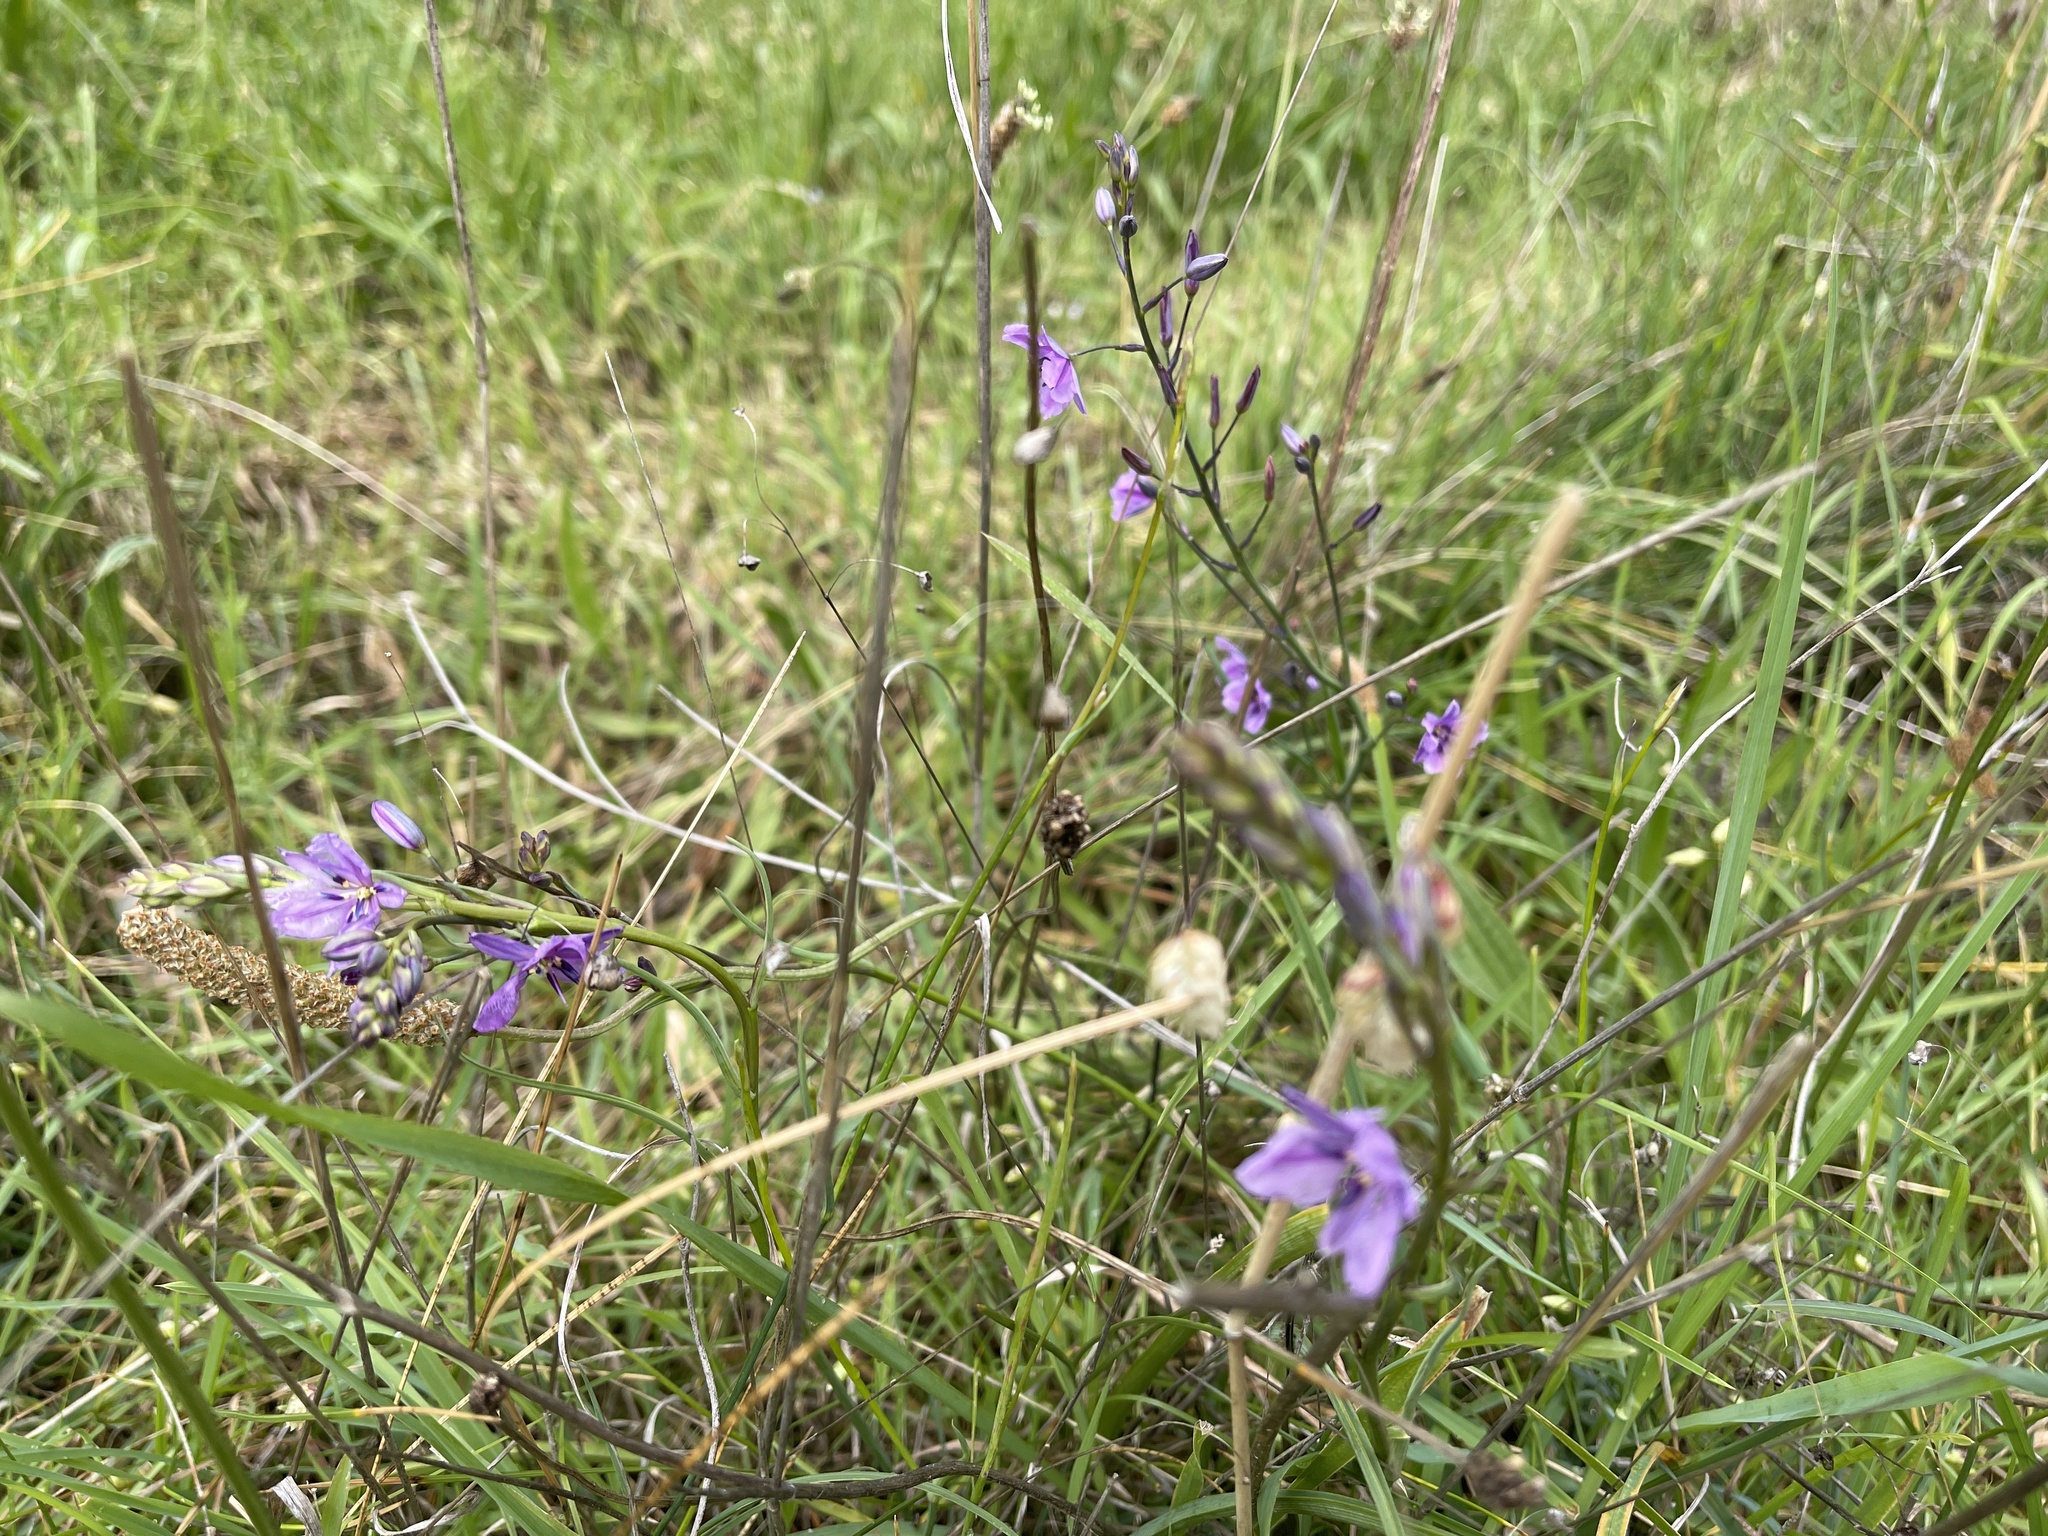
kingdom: Plantae
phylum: Tracheophyta
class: Liliopsida
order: Asparagales
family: Asparagaceae
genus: Arthropodium
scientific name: Arthropodium strictum
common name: Chocolate-lily
